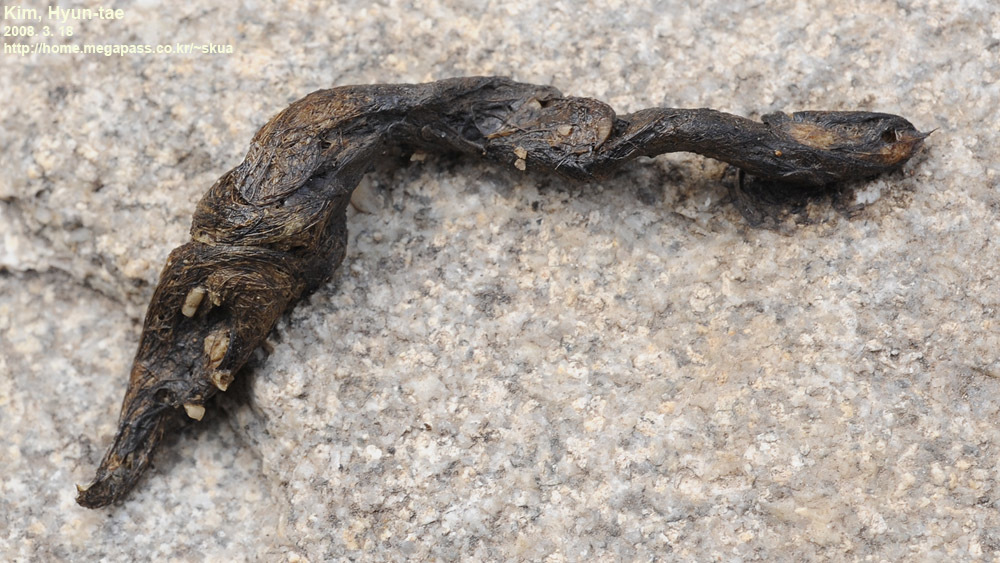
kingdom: Animalia
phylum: Chordata
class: Mammalia
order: Carnivora
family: Mustelidae
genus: Mustela
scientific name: Mustela nivalis
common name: Least weasel
